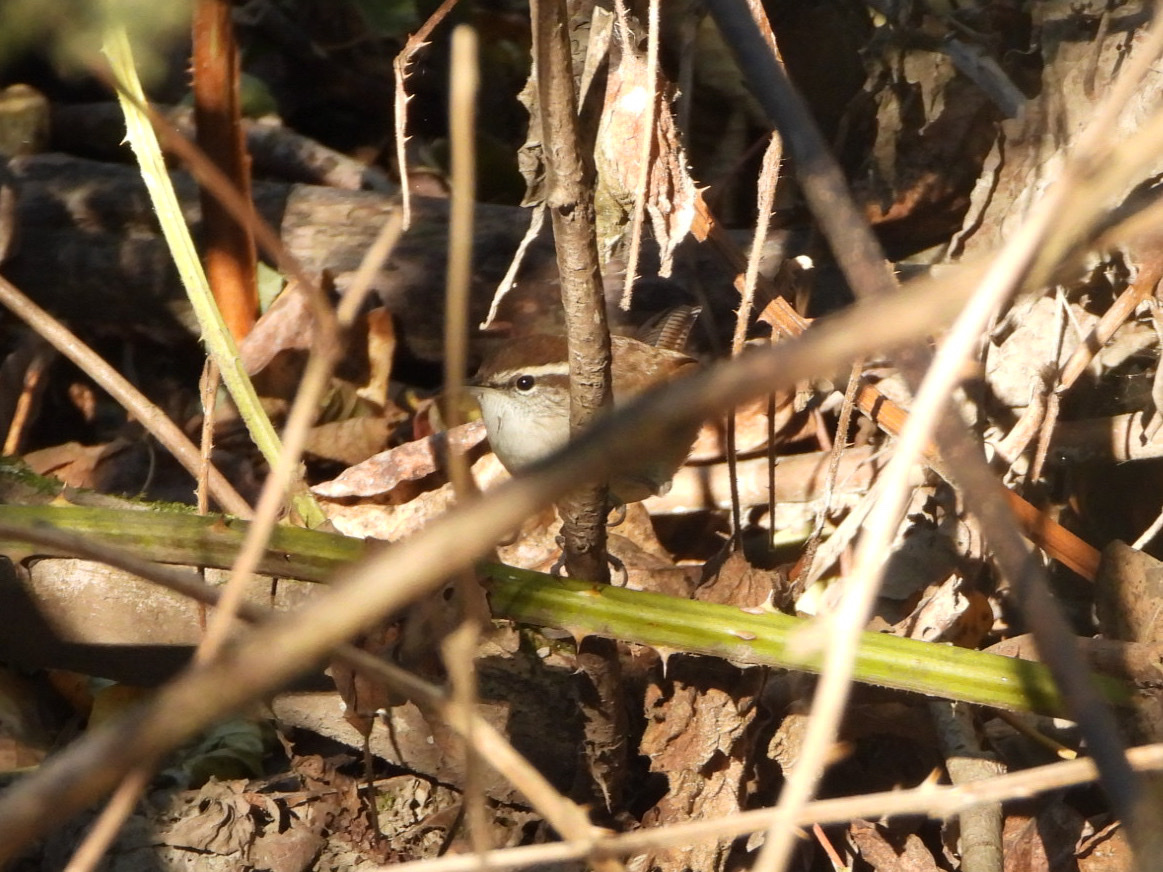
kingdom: Animalia
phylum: Chordata
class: Aves
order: Passeriformes
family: Troglodytidae
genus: Thryomanes
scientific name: Thryomanes bewickii
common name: Bewick's wren
